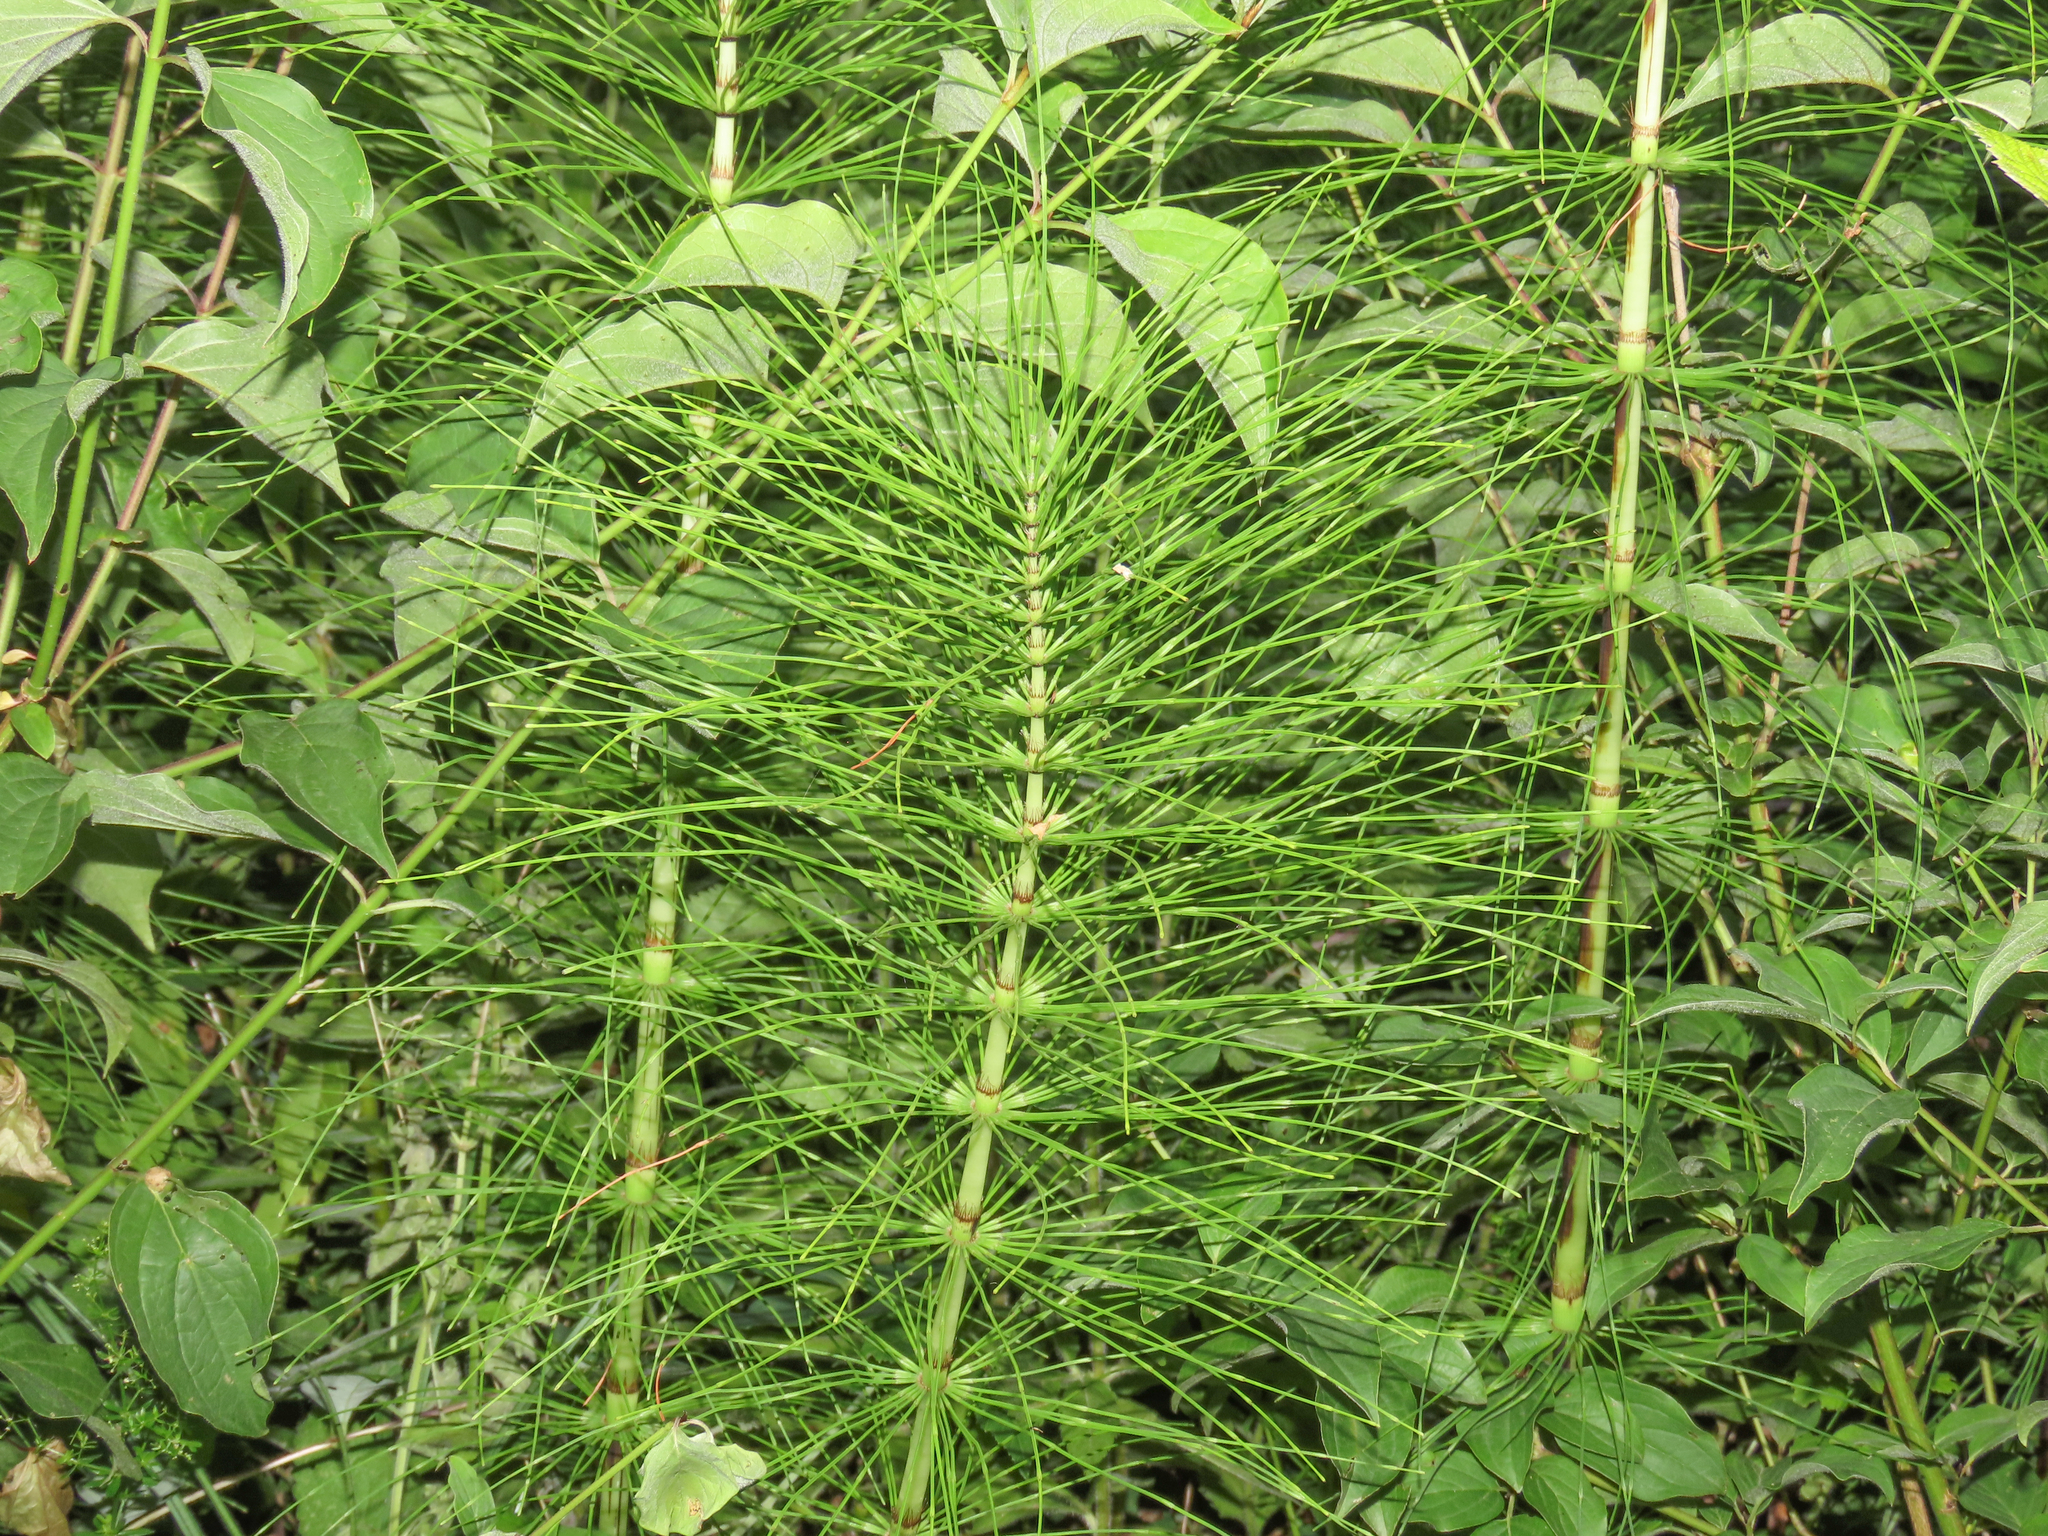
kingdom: Plantae
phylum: Tracheophyta
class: Polypodiopsida
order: Equisetales
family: Equisetaceae
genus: Equisetum
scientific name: Equisetum telmateia
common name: Great horsetail
